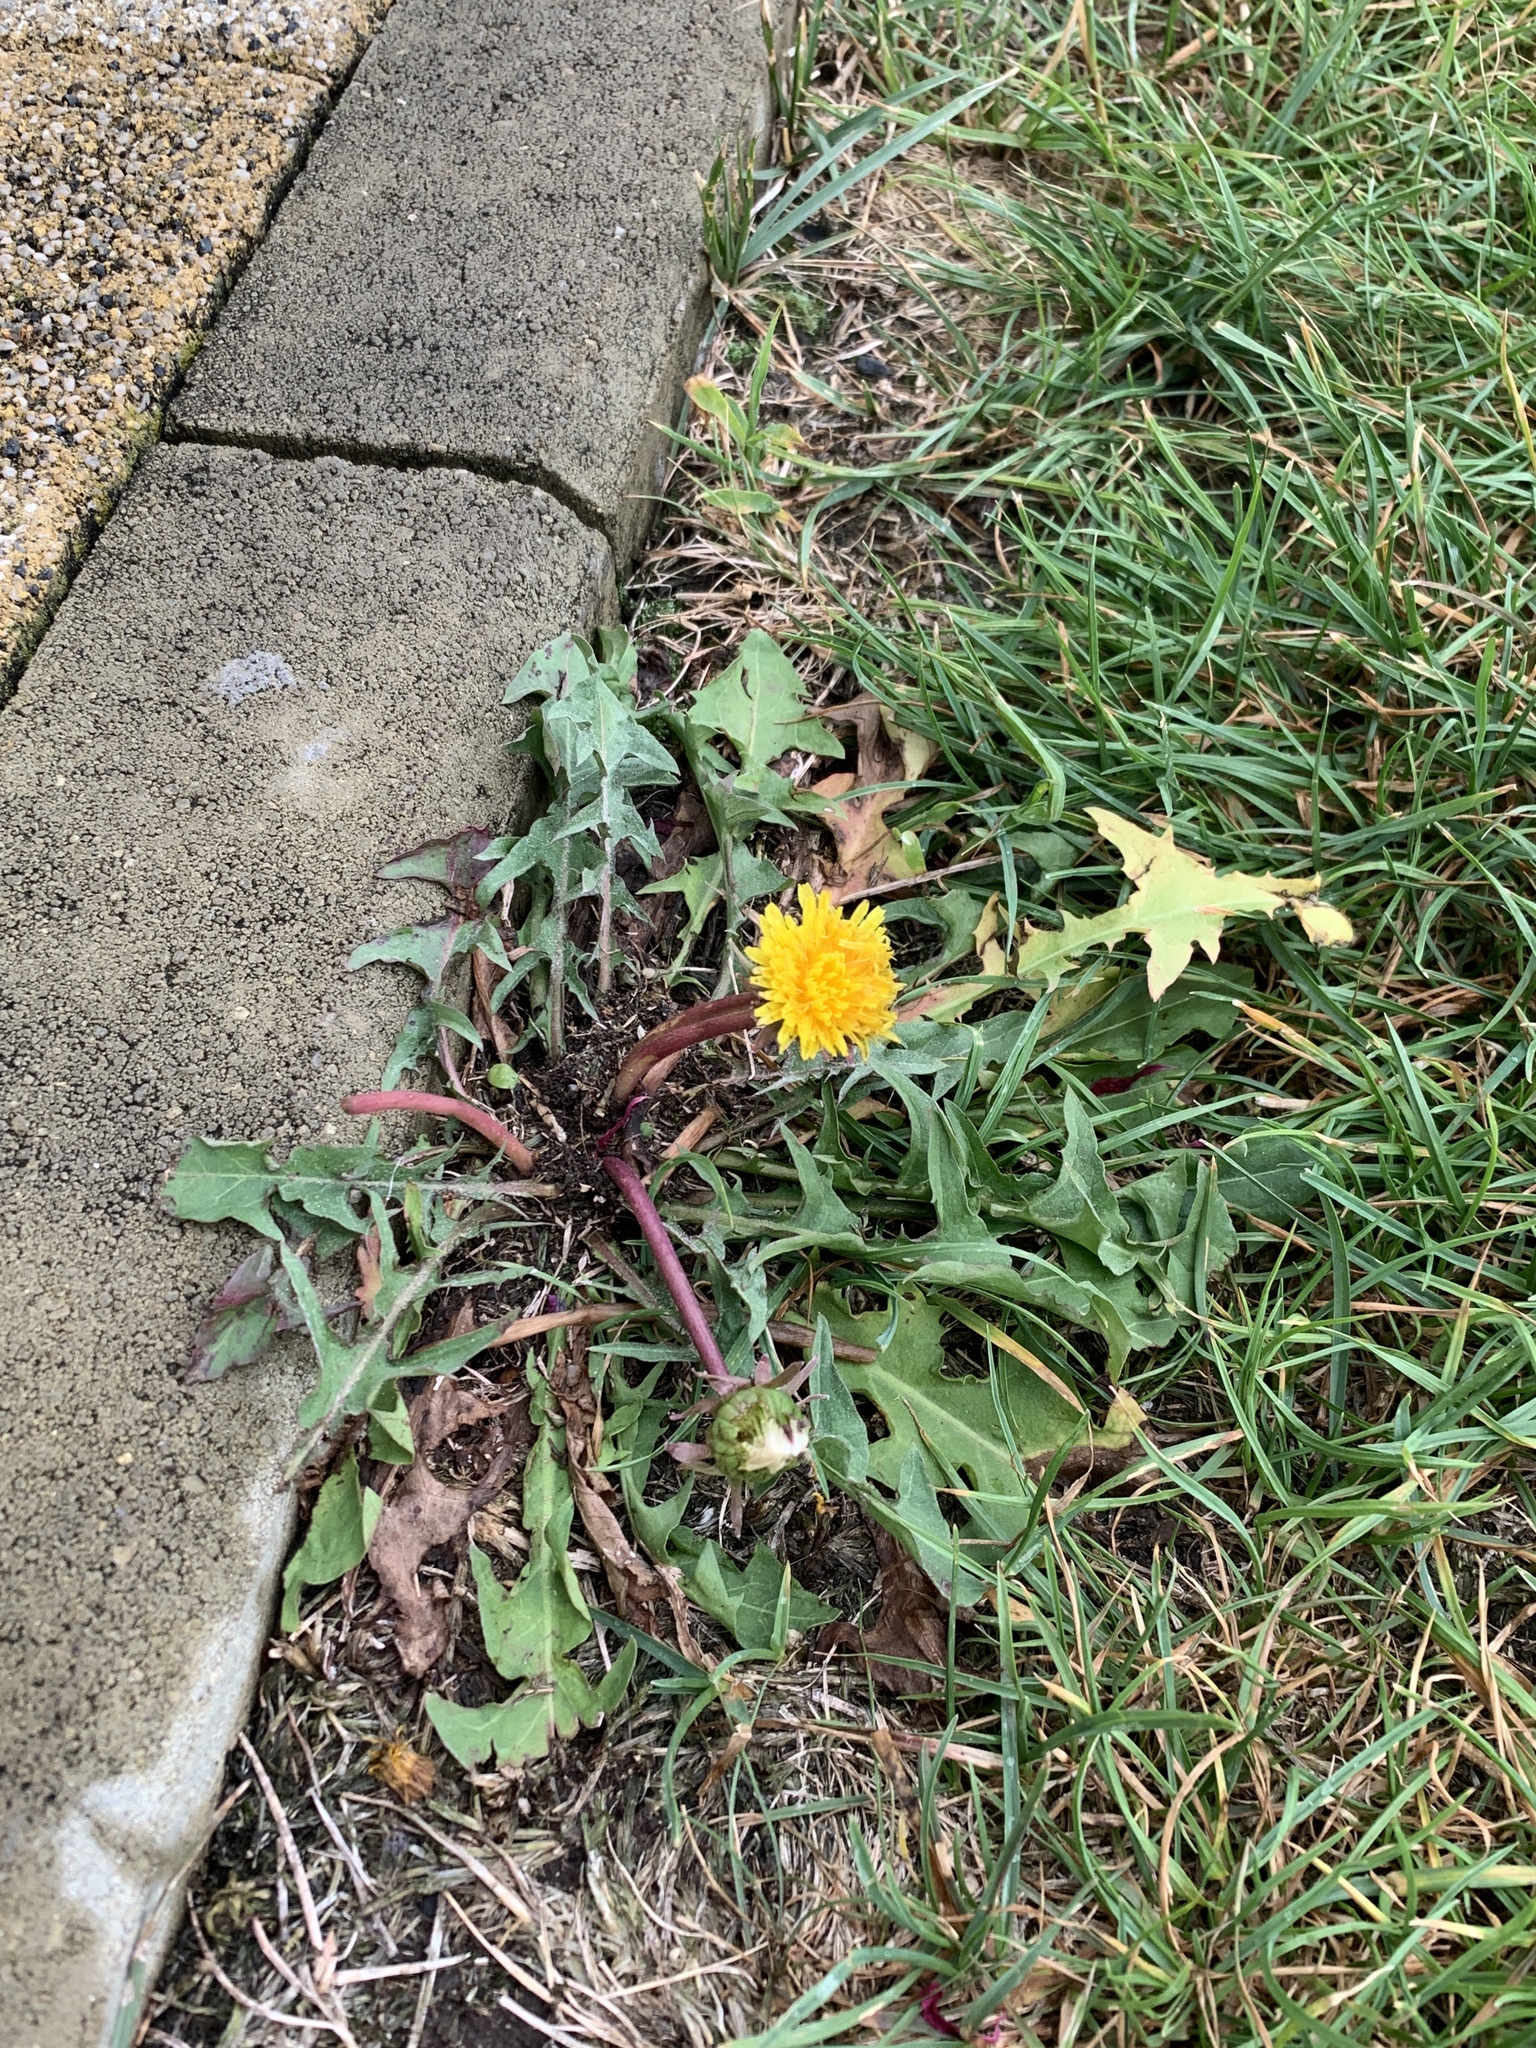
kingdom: Plantae
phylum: Tracheophyta
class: Magnoliopsida
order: Asterales
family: Asteraceae
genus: Taraxacum
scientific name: Taraxacum officinale
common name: Common dandelion
